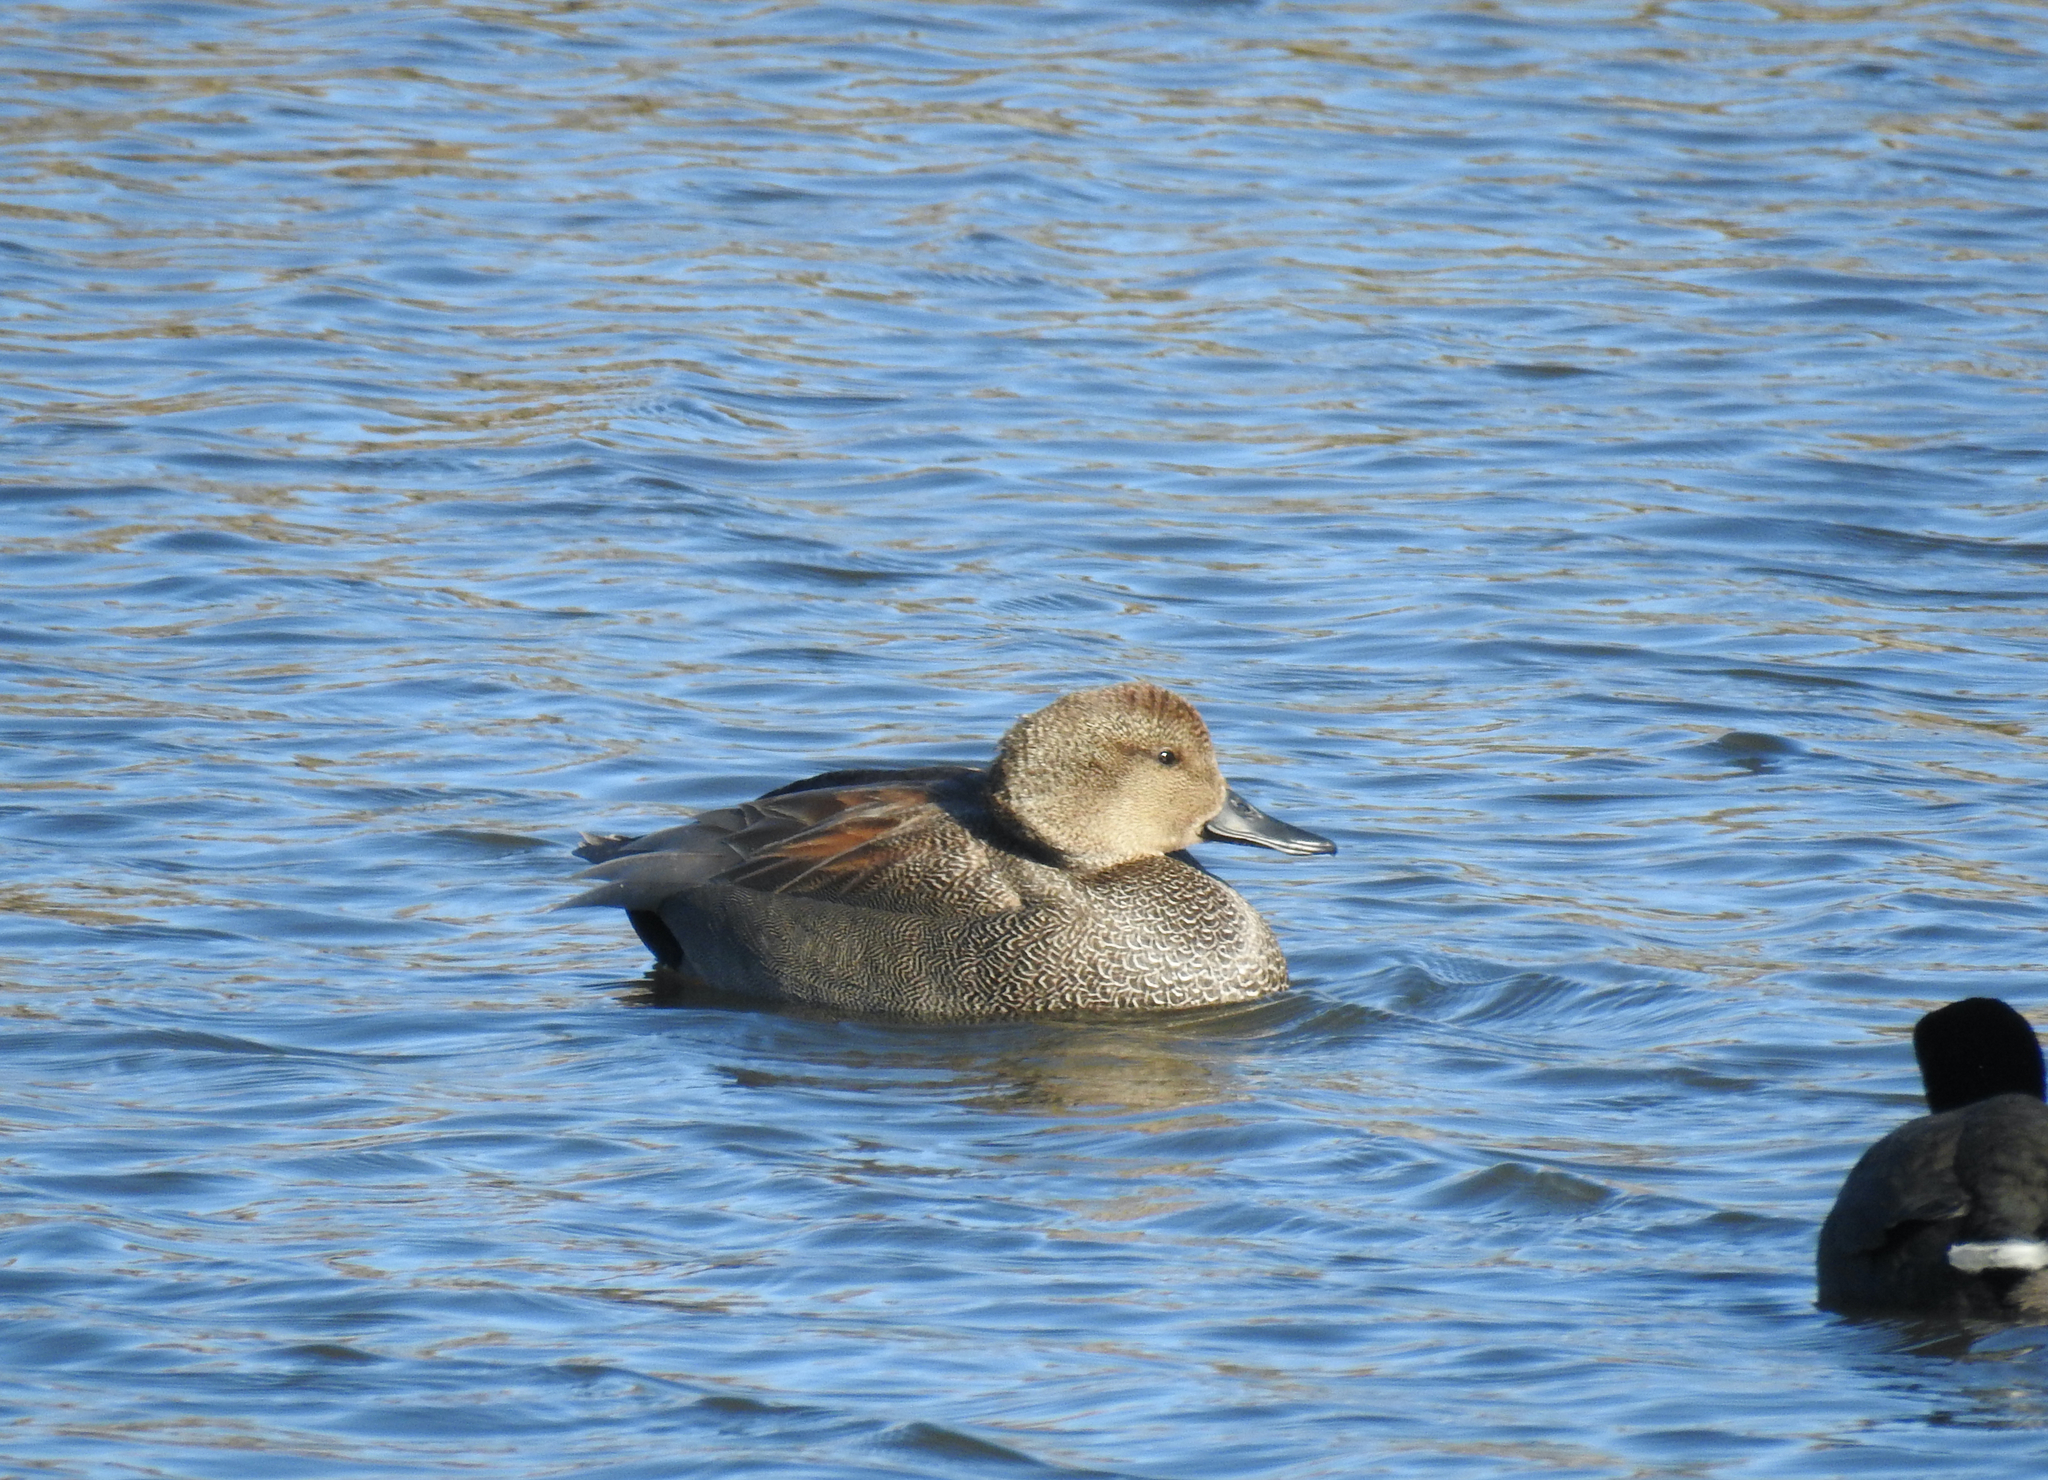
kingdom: Animalia
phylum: Chordata
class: Aves
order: Anseriformes
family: Anatidae
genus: Mareca
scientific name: Mareca strepera
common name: Gadwall
